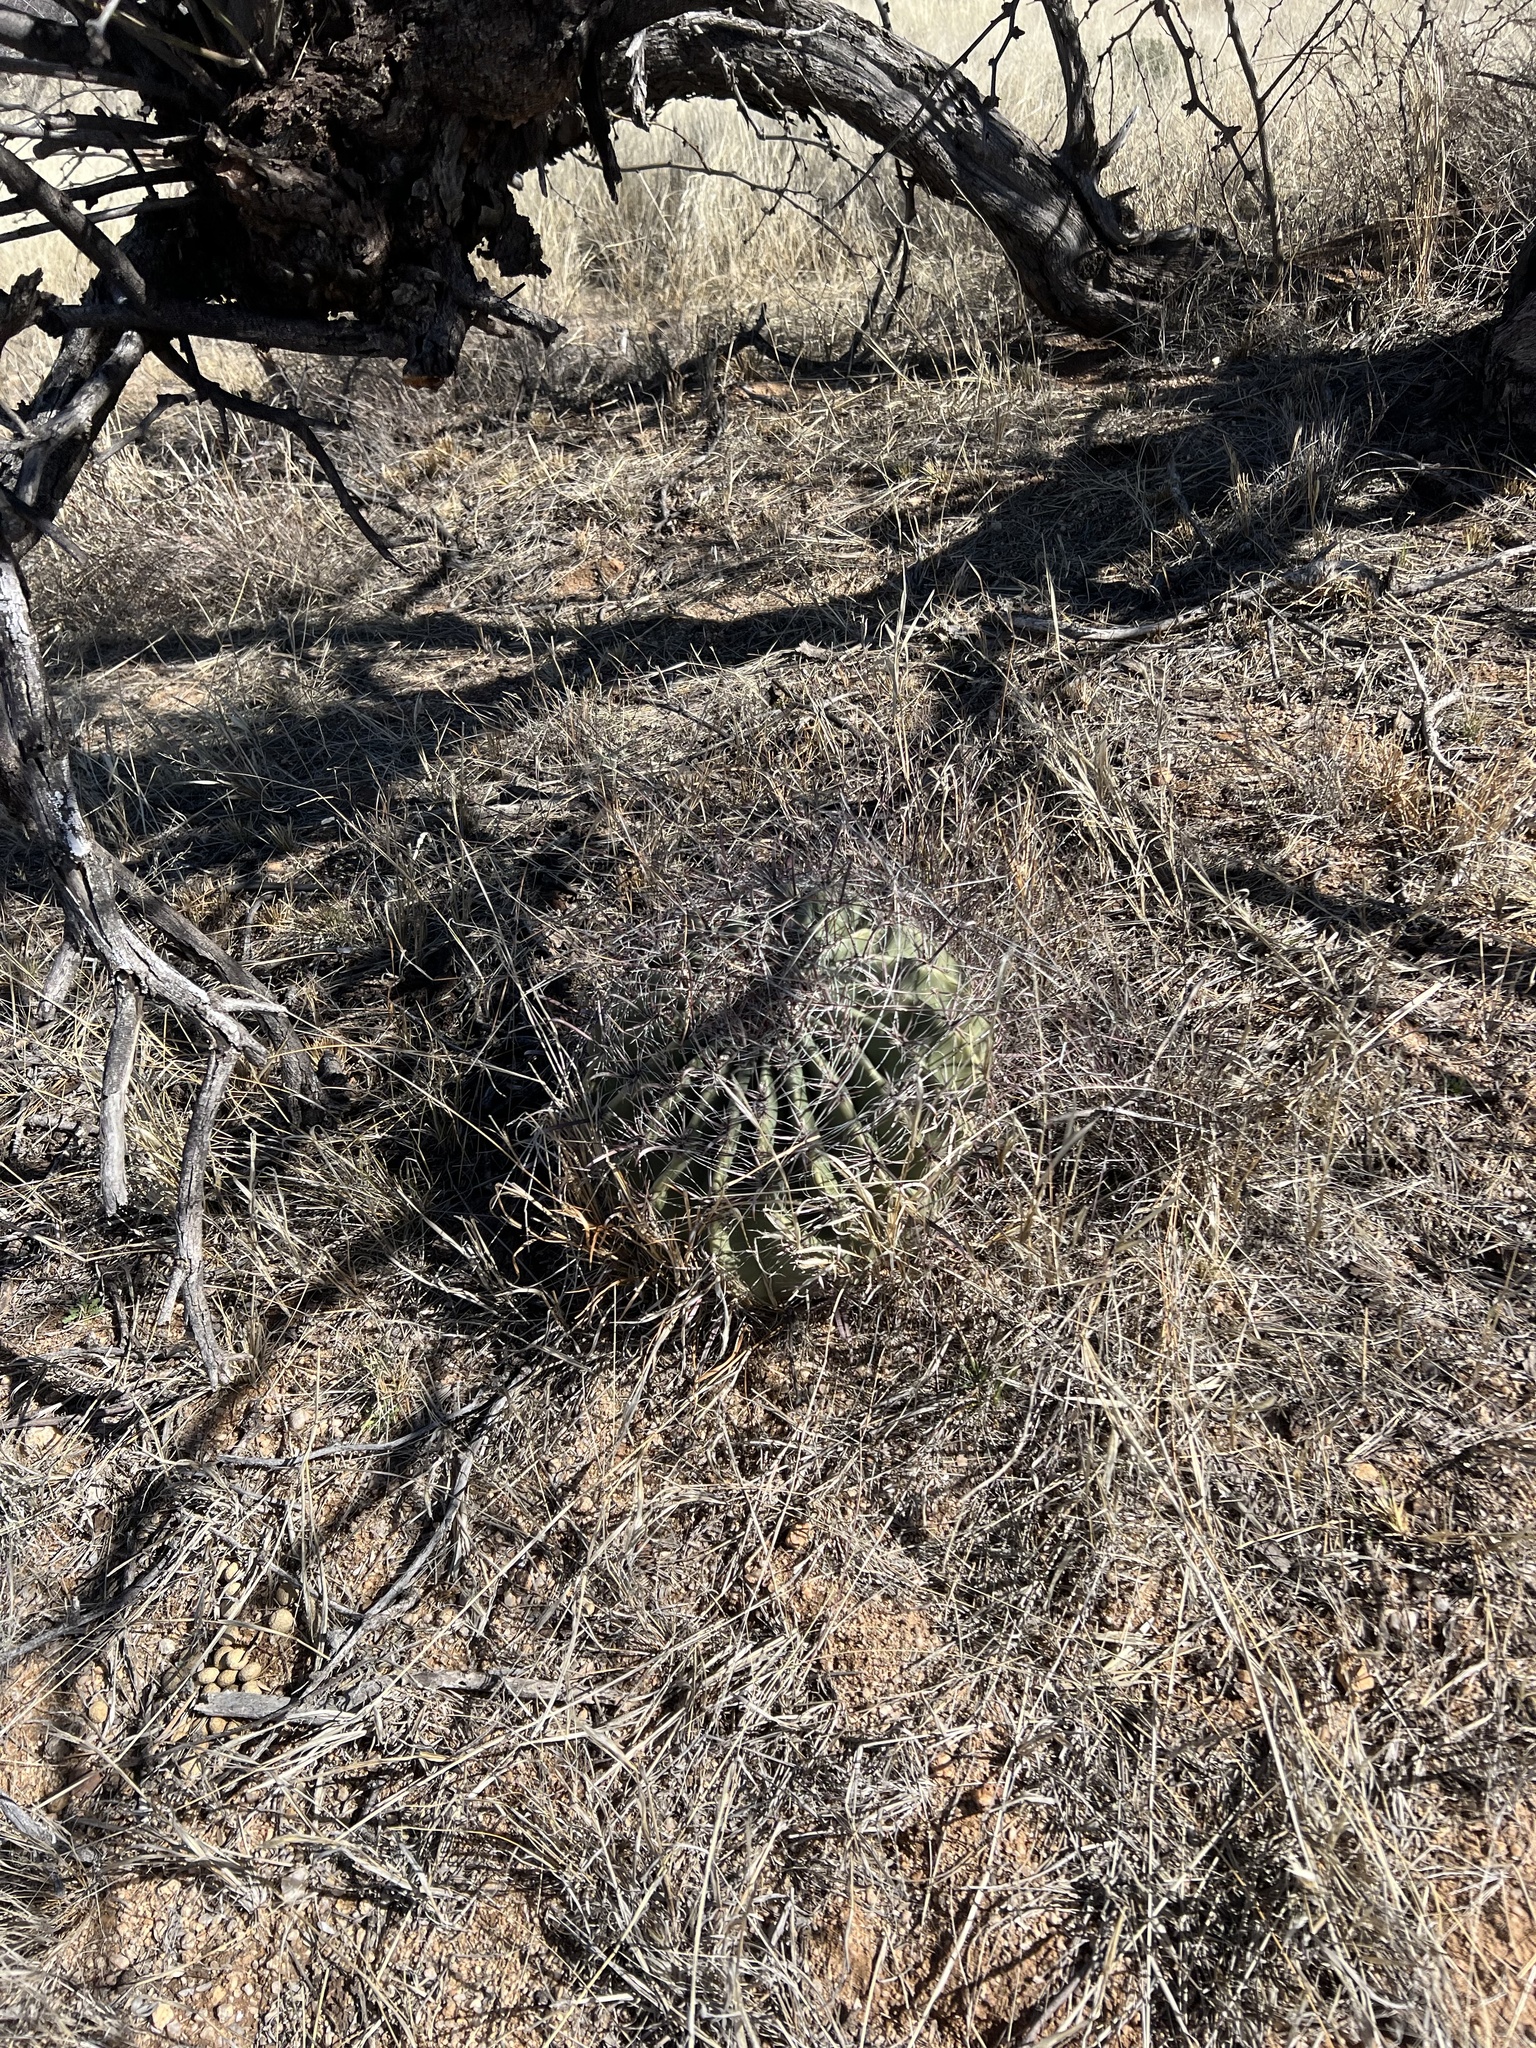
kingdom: Plantae
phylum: Tracheophyta
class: Magnoliopsida
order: Caryophyllales
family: Cactaceae
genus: Ferocactus
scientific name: Ferocactus wislizeni
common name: Candy barrel cactus
